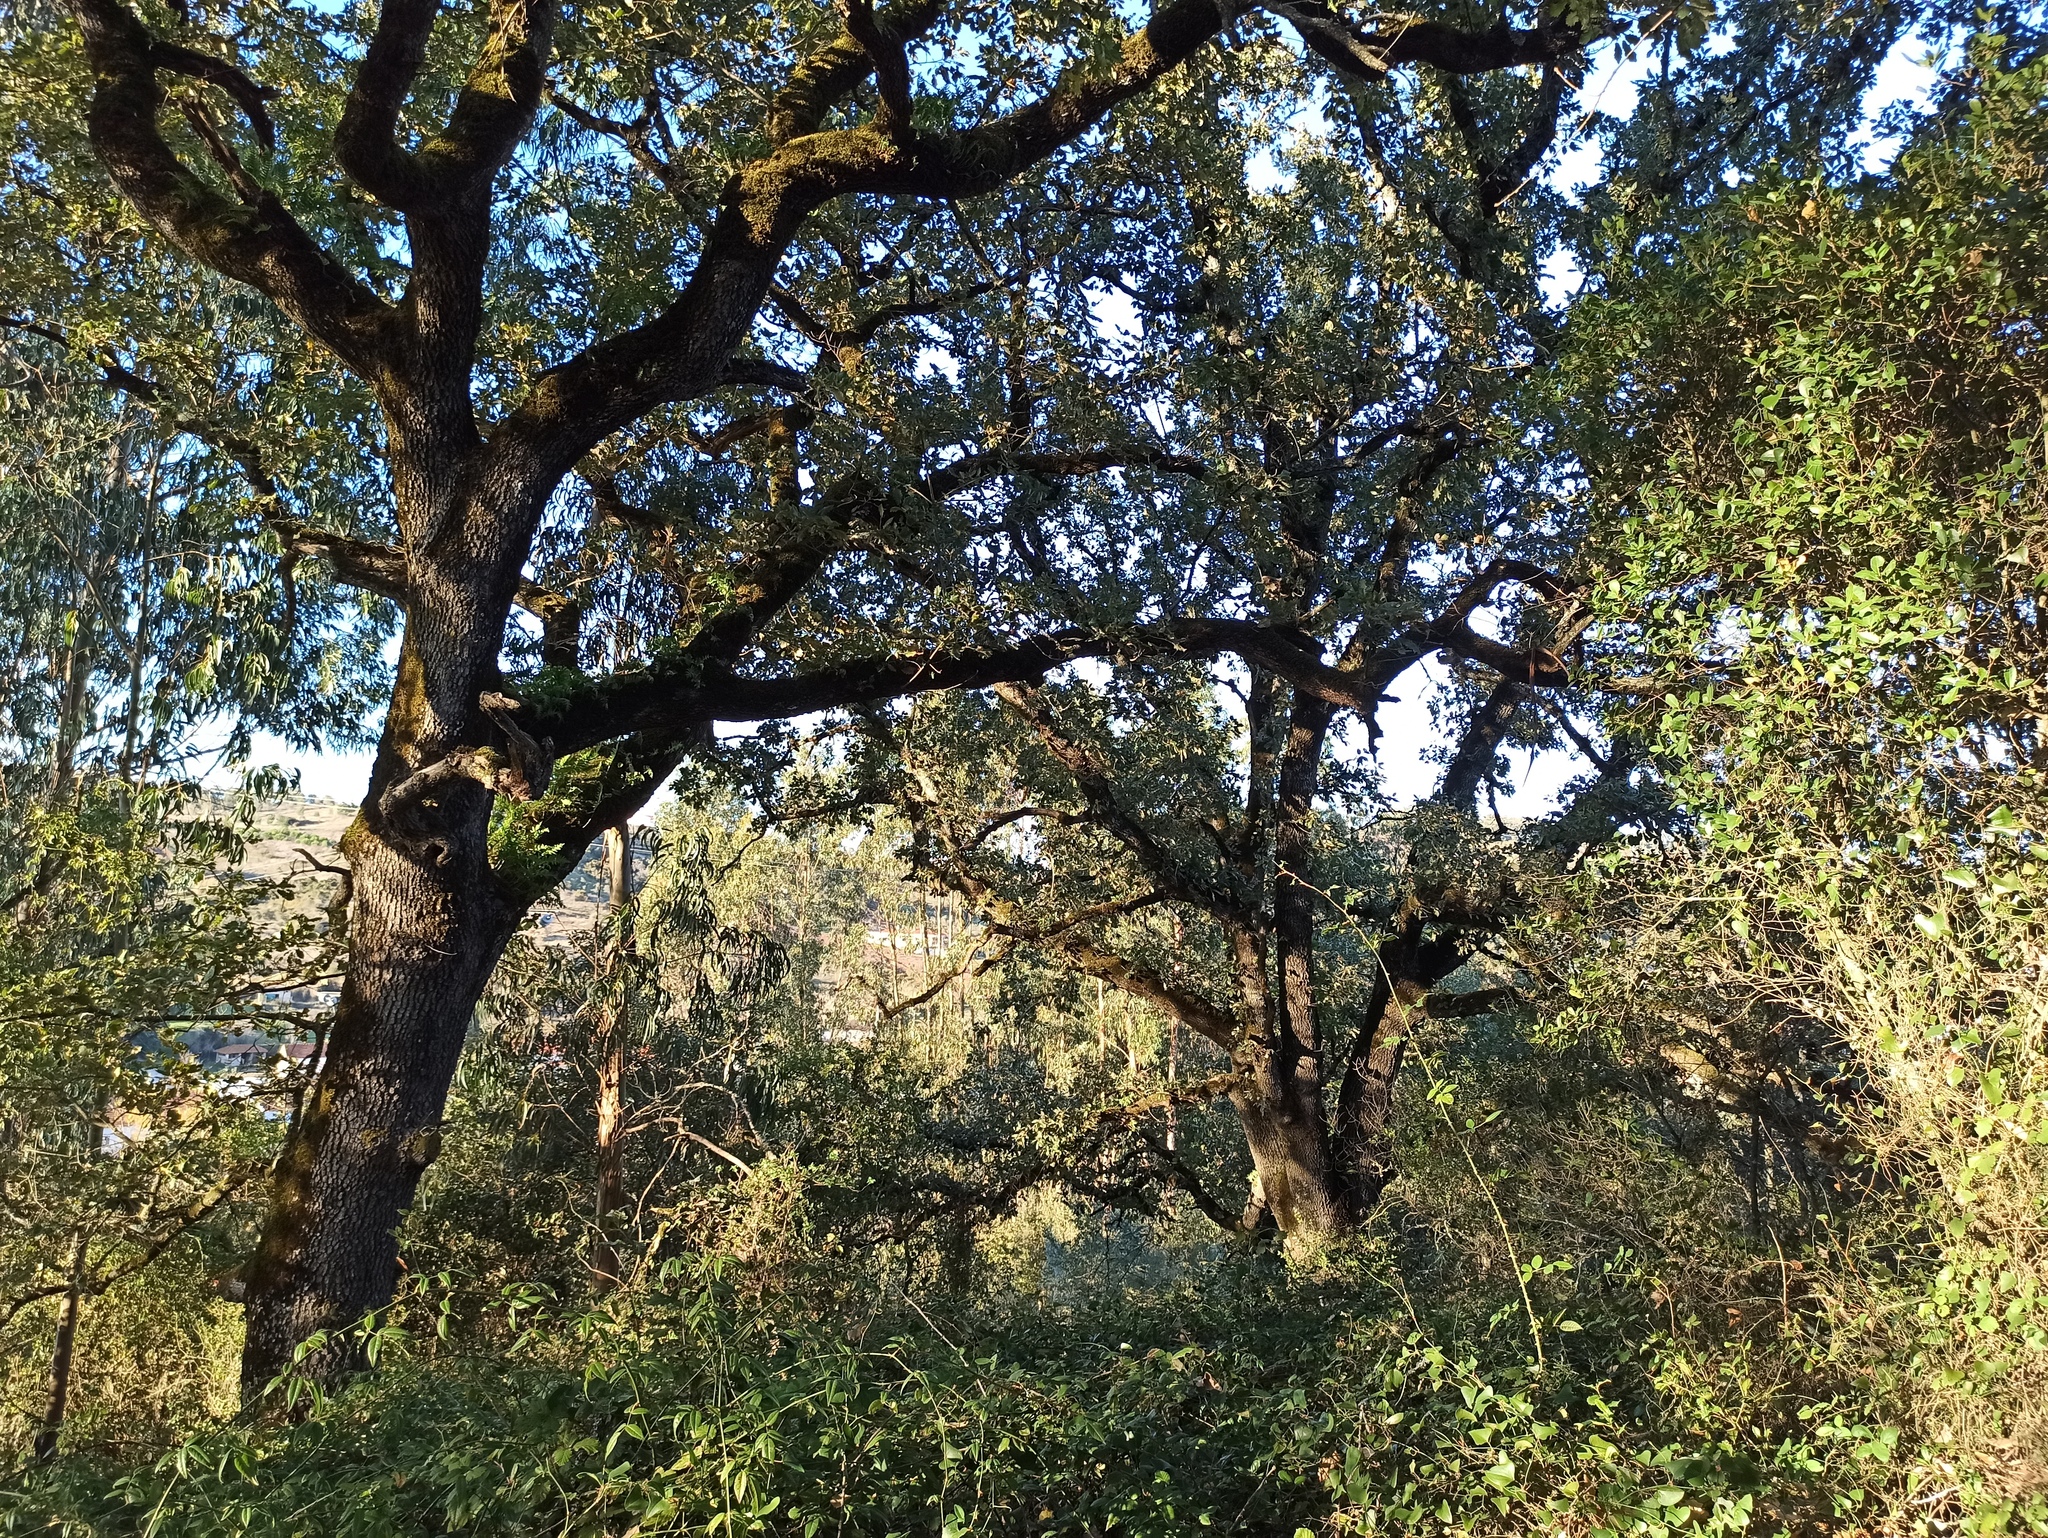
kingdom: Plantae
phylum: Tracheophyta
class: Magnoliopsida
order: Fagales
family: Fagaceae
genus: Quercus
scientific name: Quercus faginea
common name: Gall oak tree
